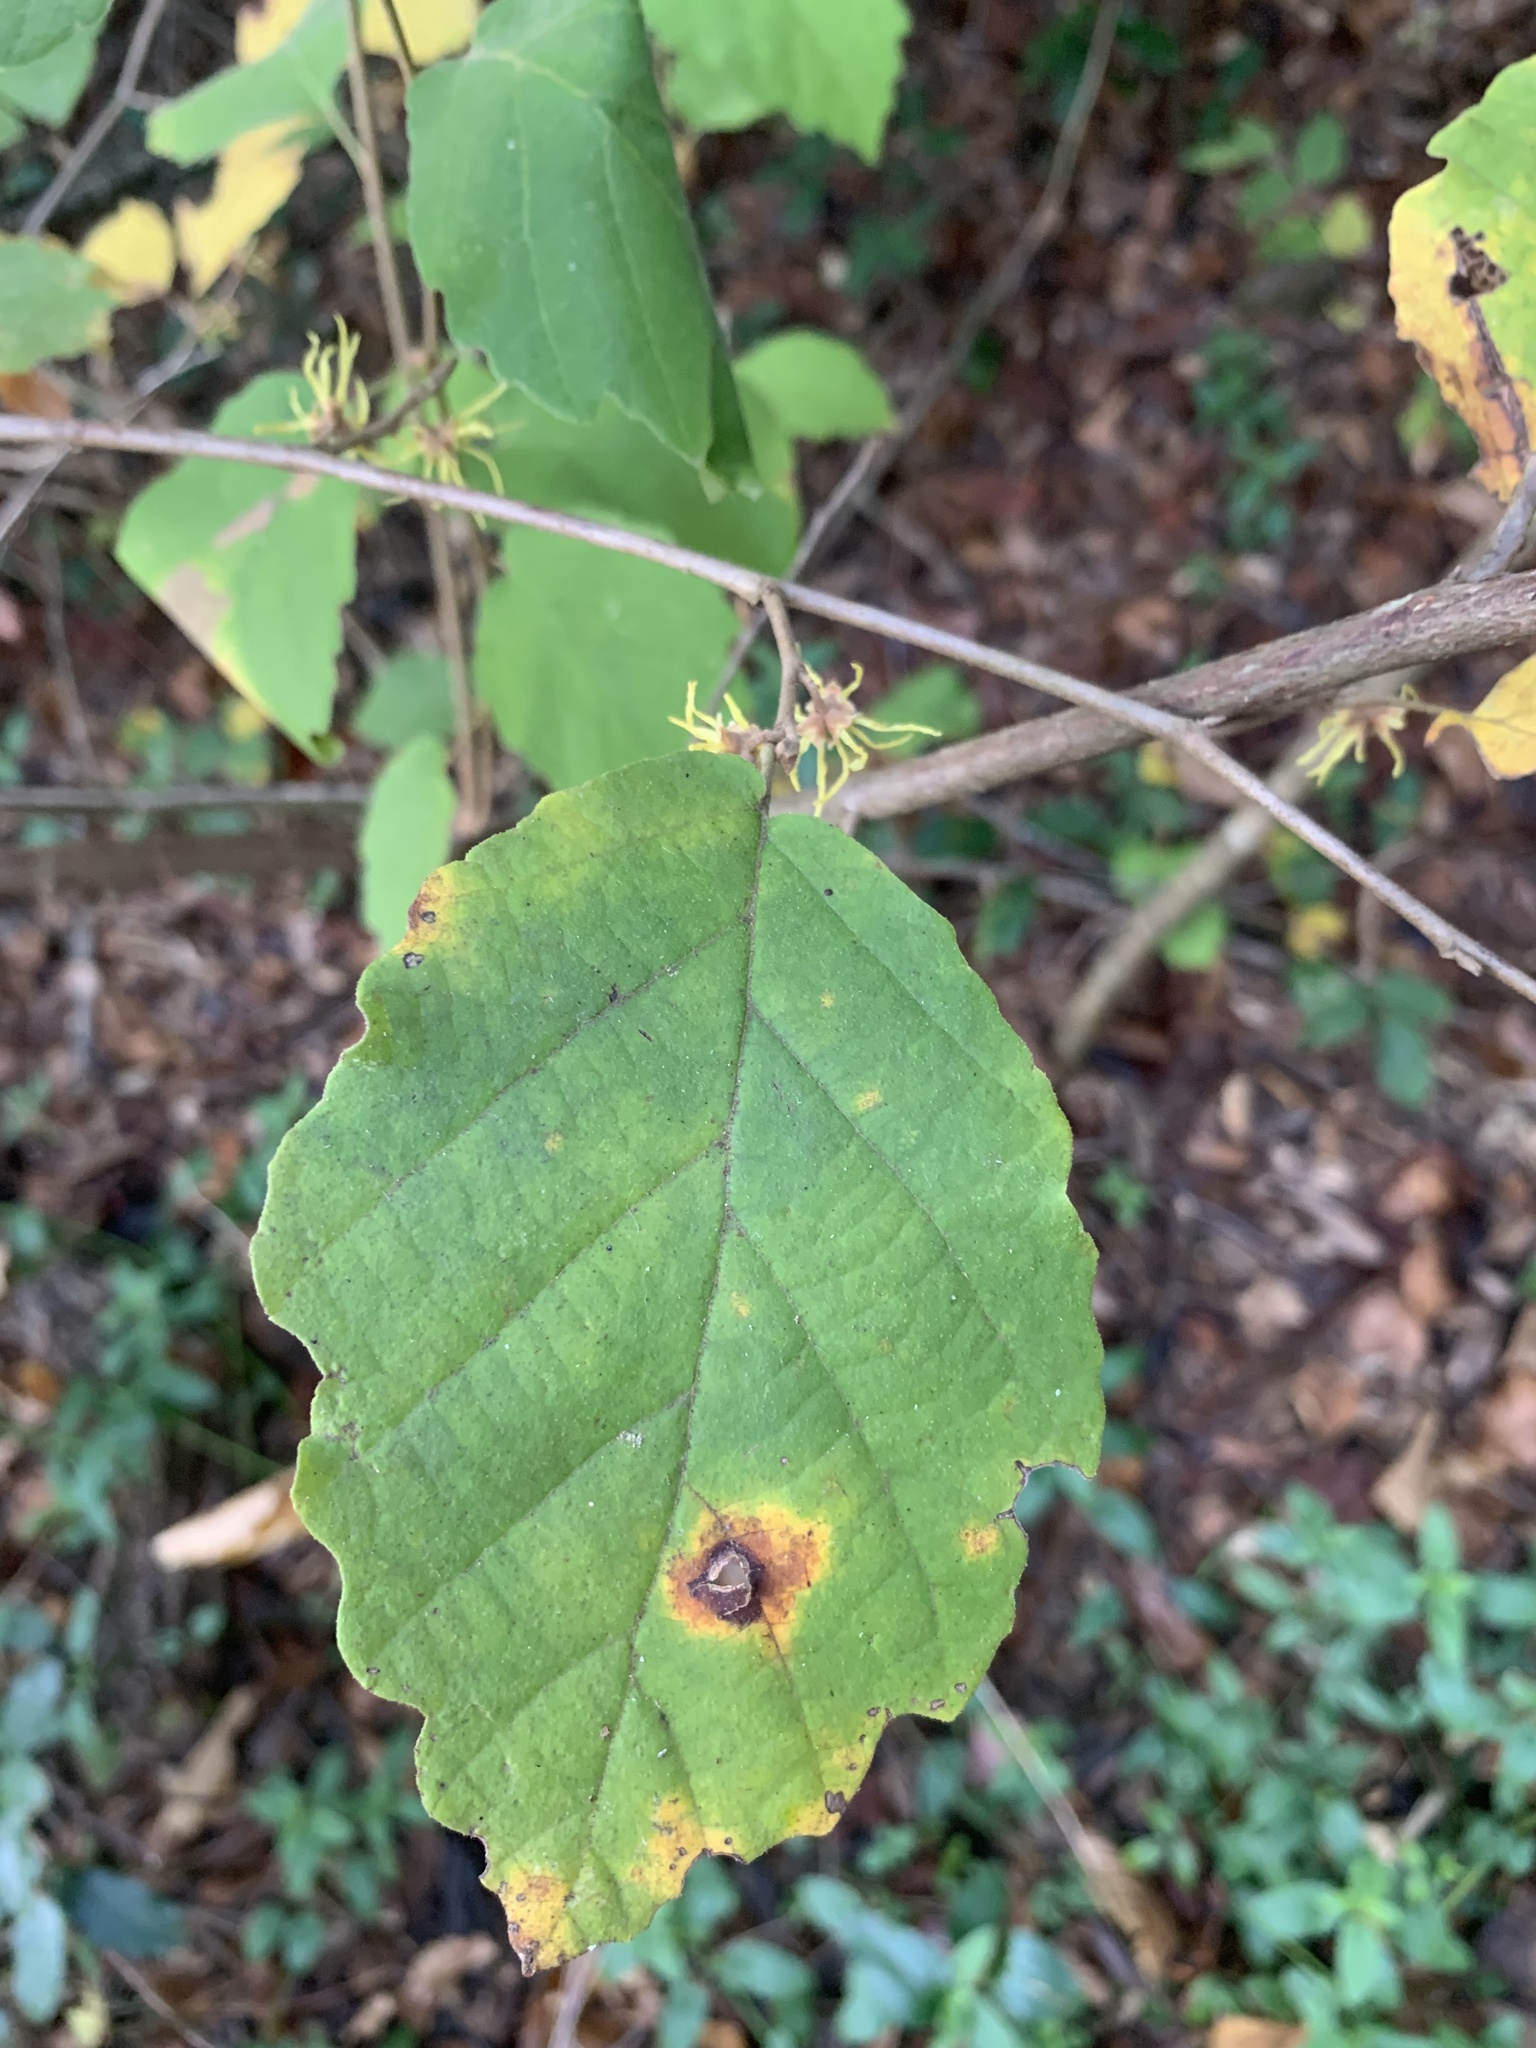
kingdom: Plantae
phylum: Tracheophyta
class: Magnoliopsida
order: Saxifragales
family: Hamamelidaceae
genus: Hamamelis
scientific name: Hamamelis virginiana
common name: Witch-hazel
